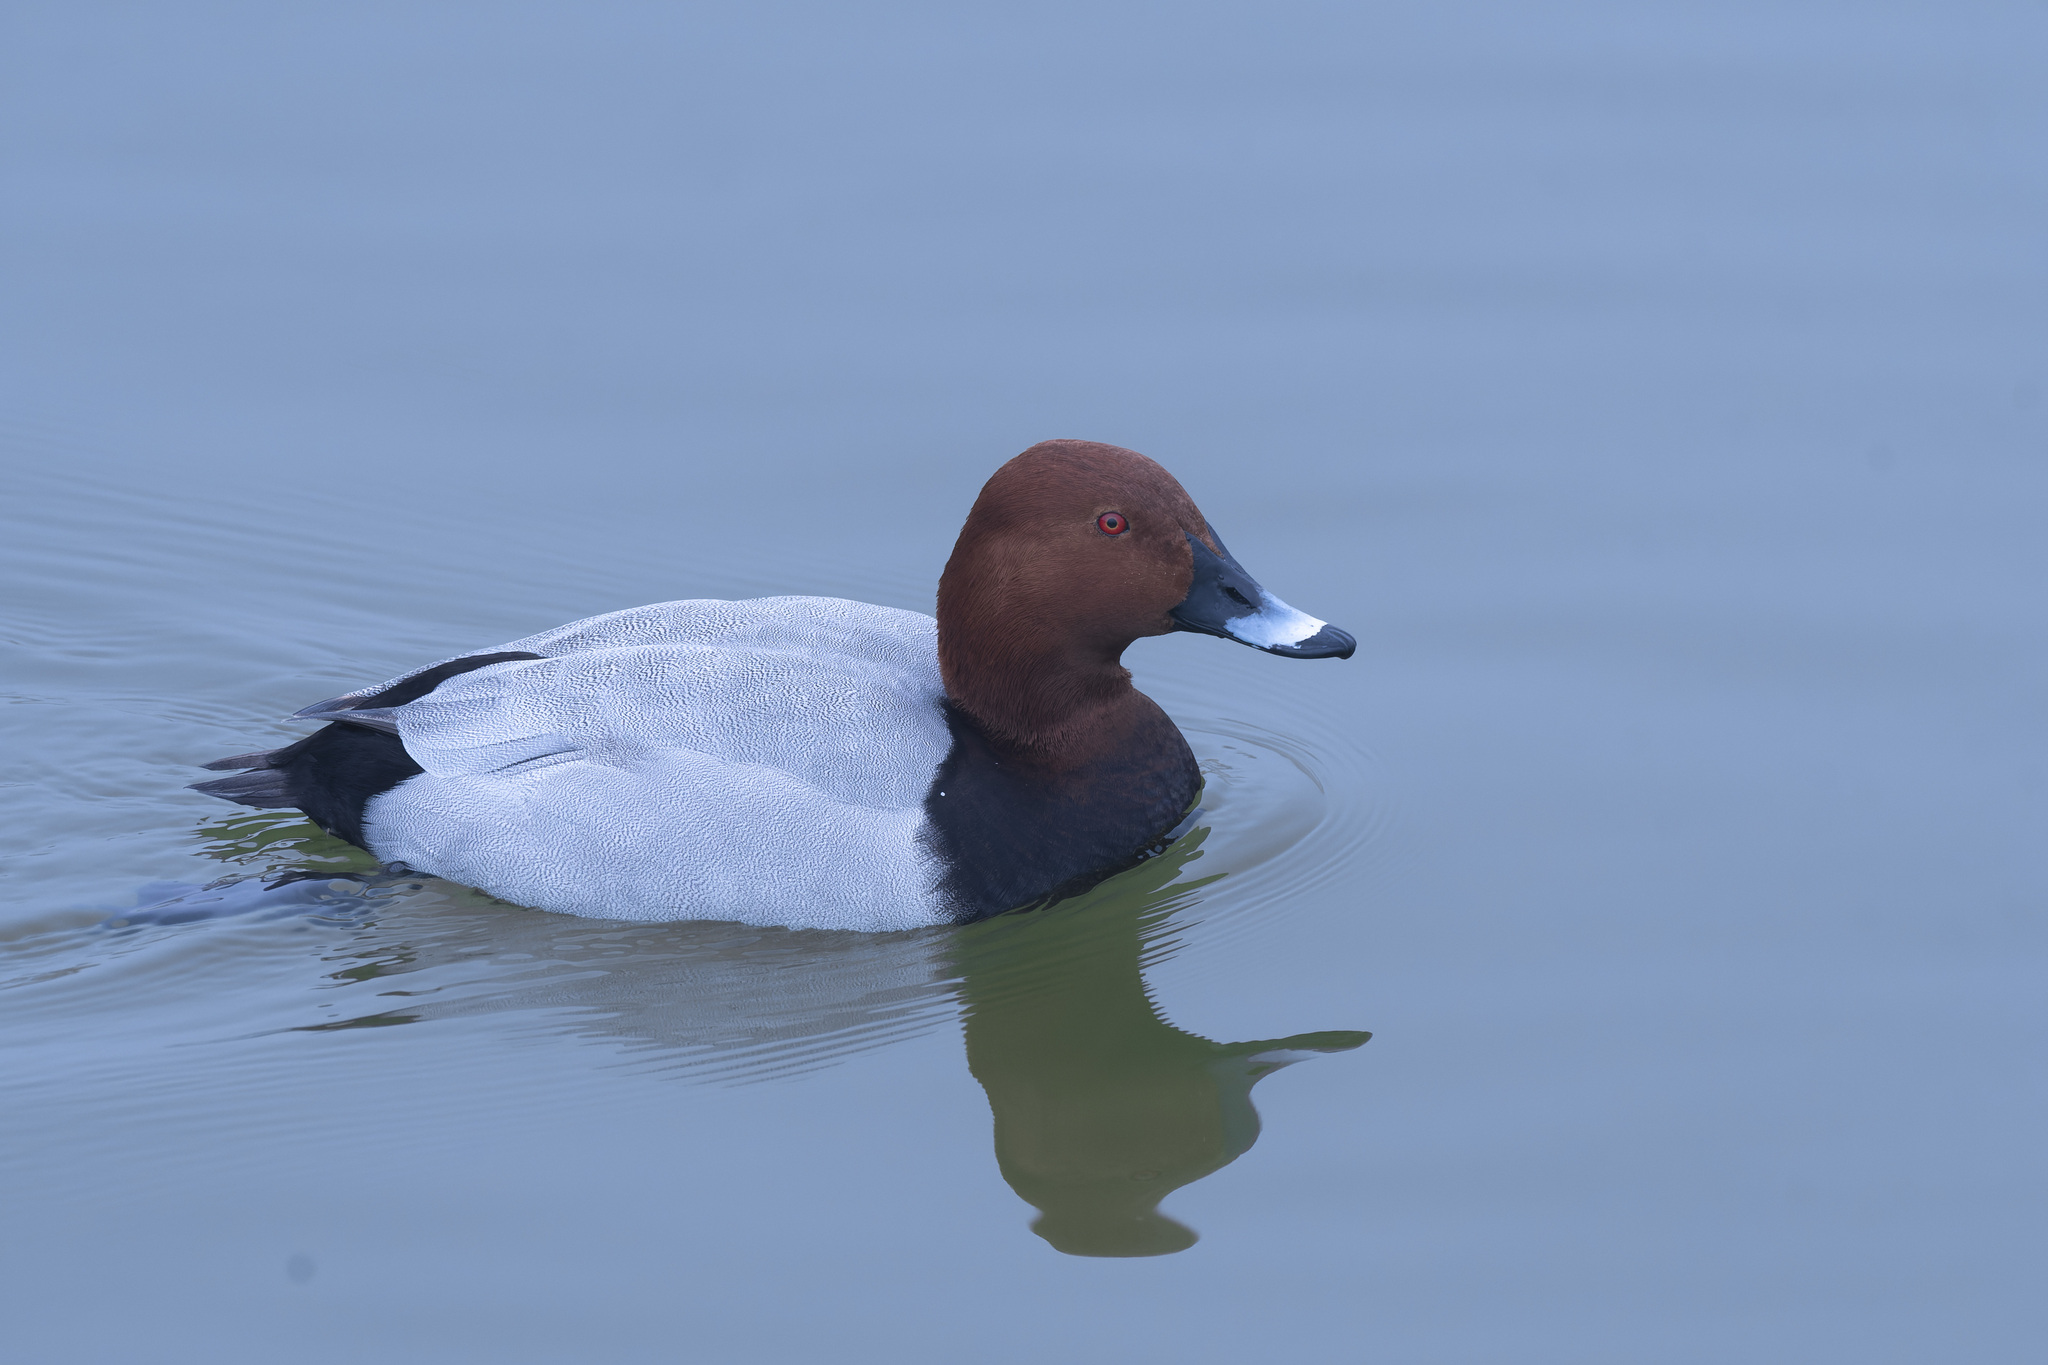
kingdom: Animalia
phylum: Chordata
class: Aves
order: Anseriformes
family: Anatidae
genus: Aythya
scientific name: Aythya ferina
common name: Common pochard
